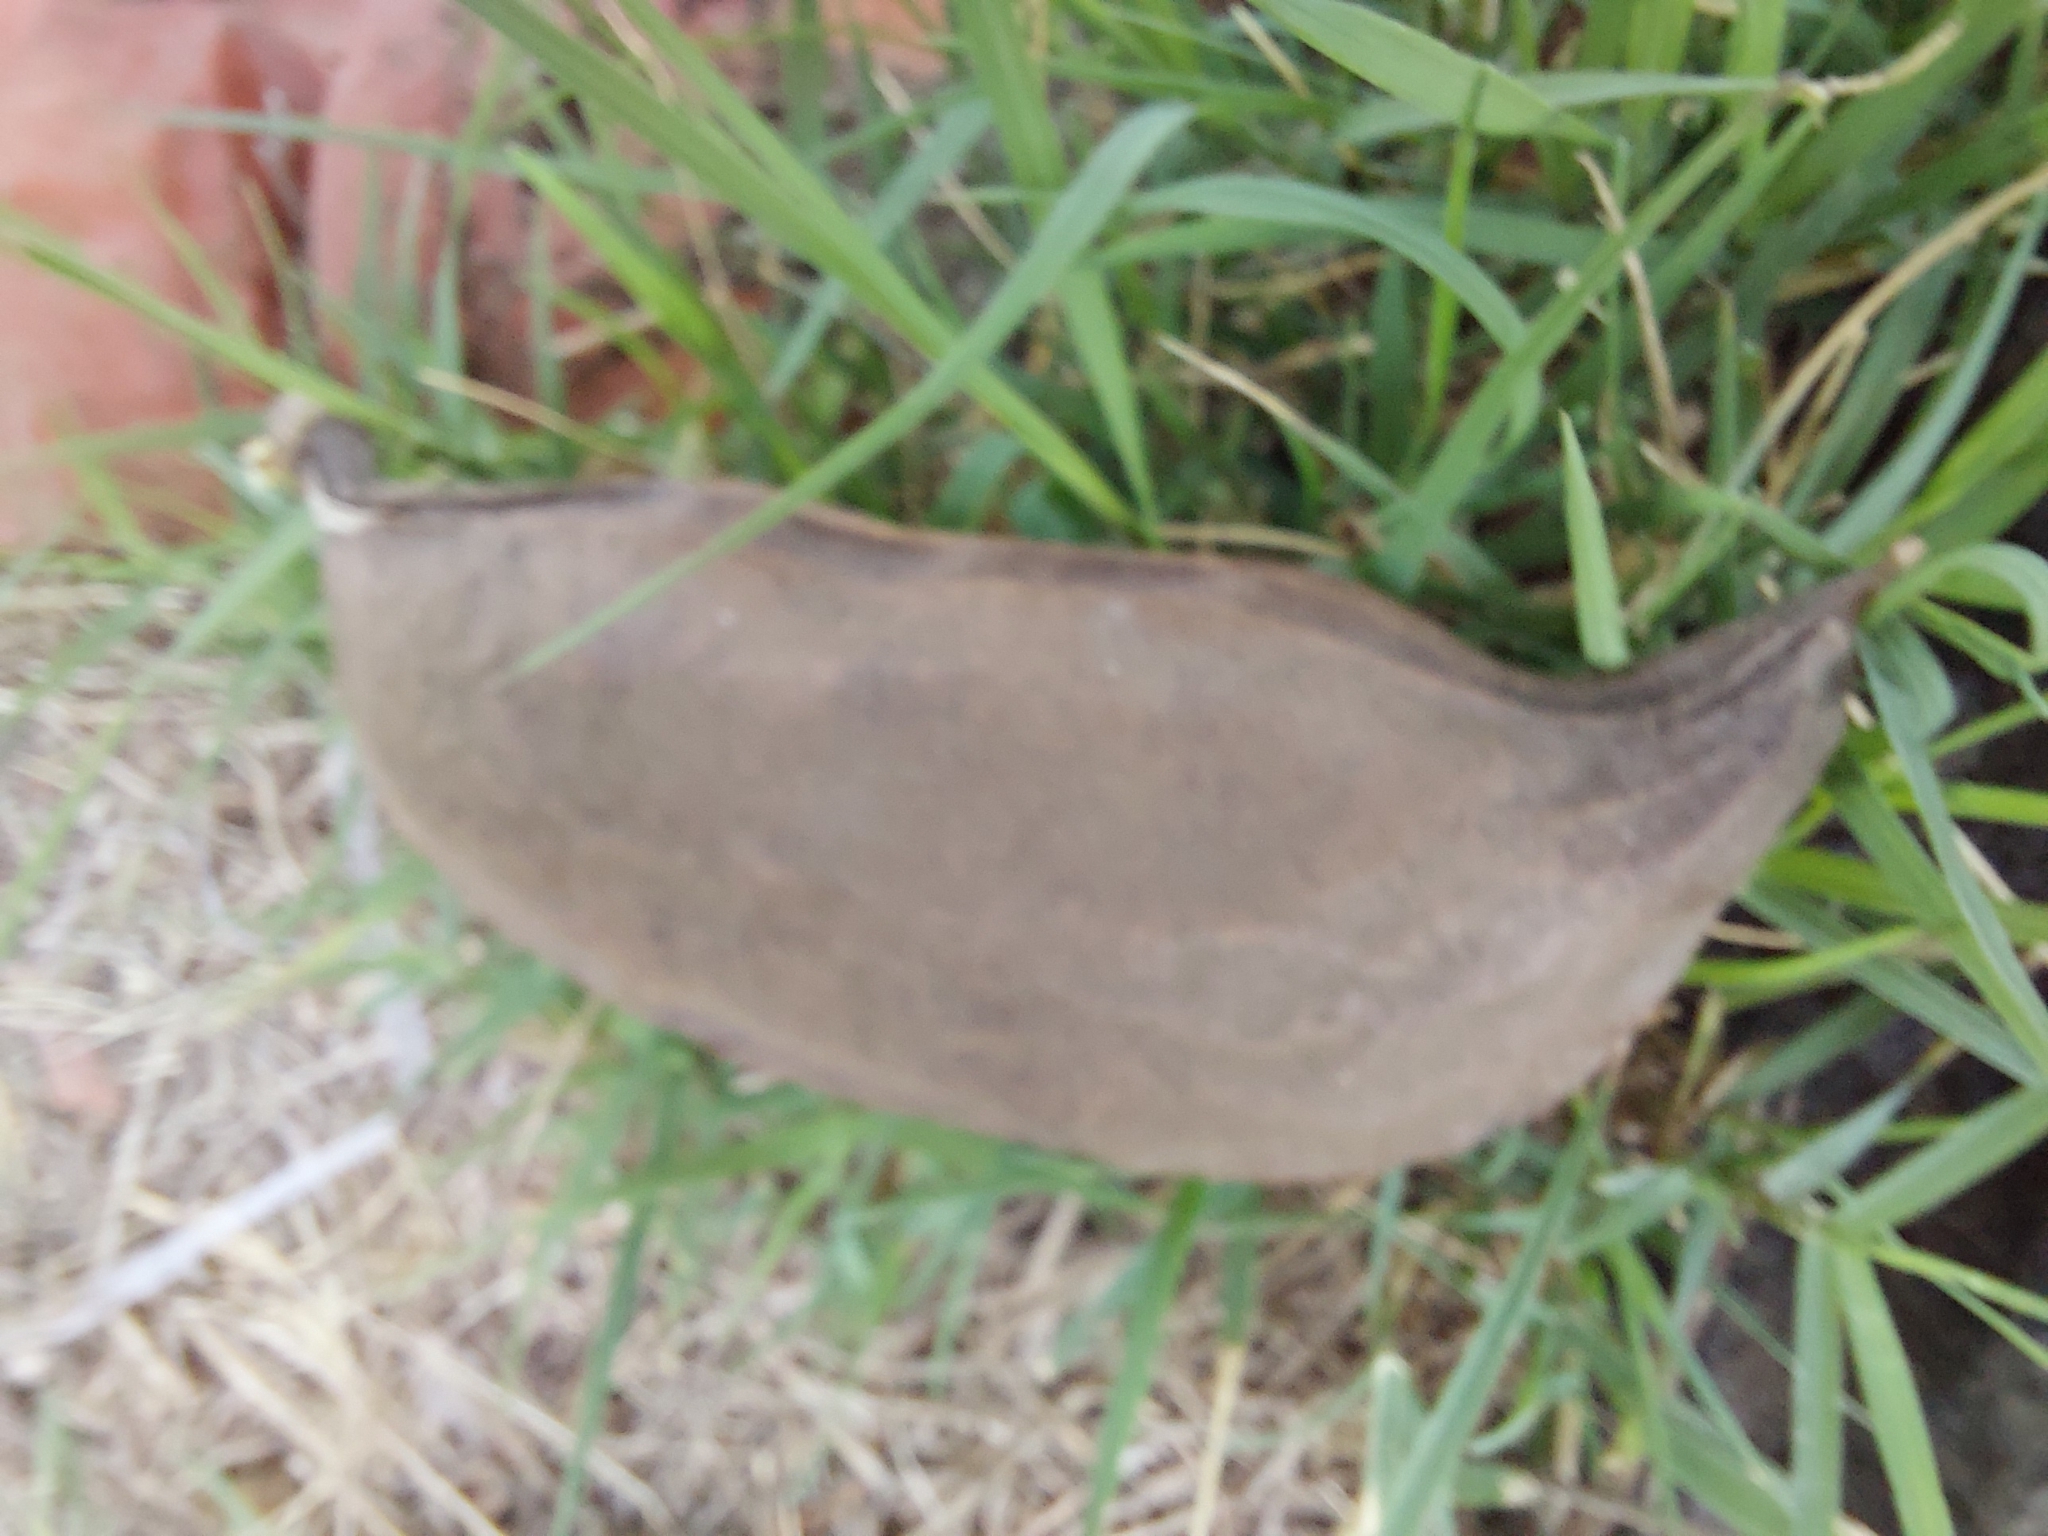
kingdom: Plantae
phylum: Tracheophyta
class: Magnoliopsida
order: Fabales
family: Fabaceae
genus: Canavalia
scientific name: Canavalia lineata
